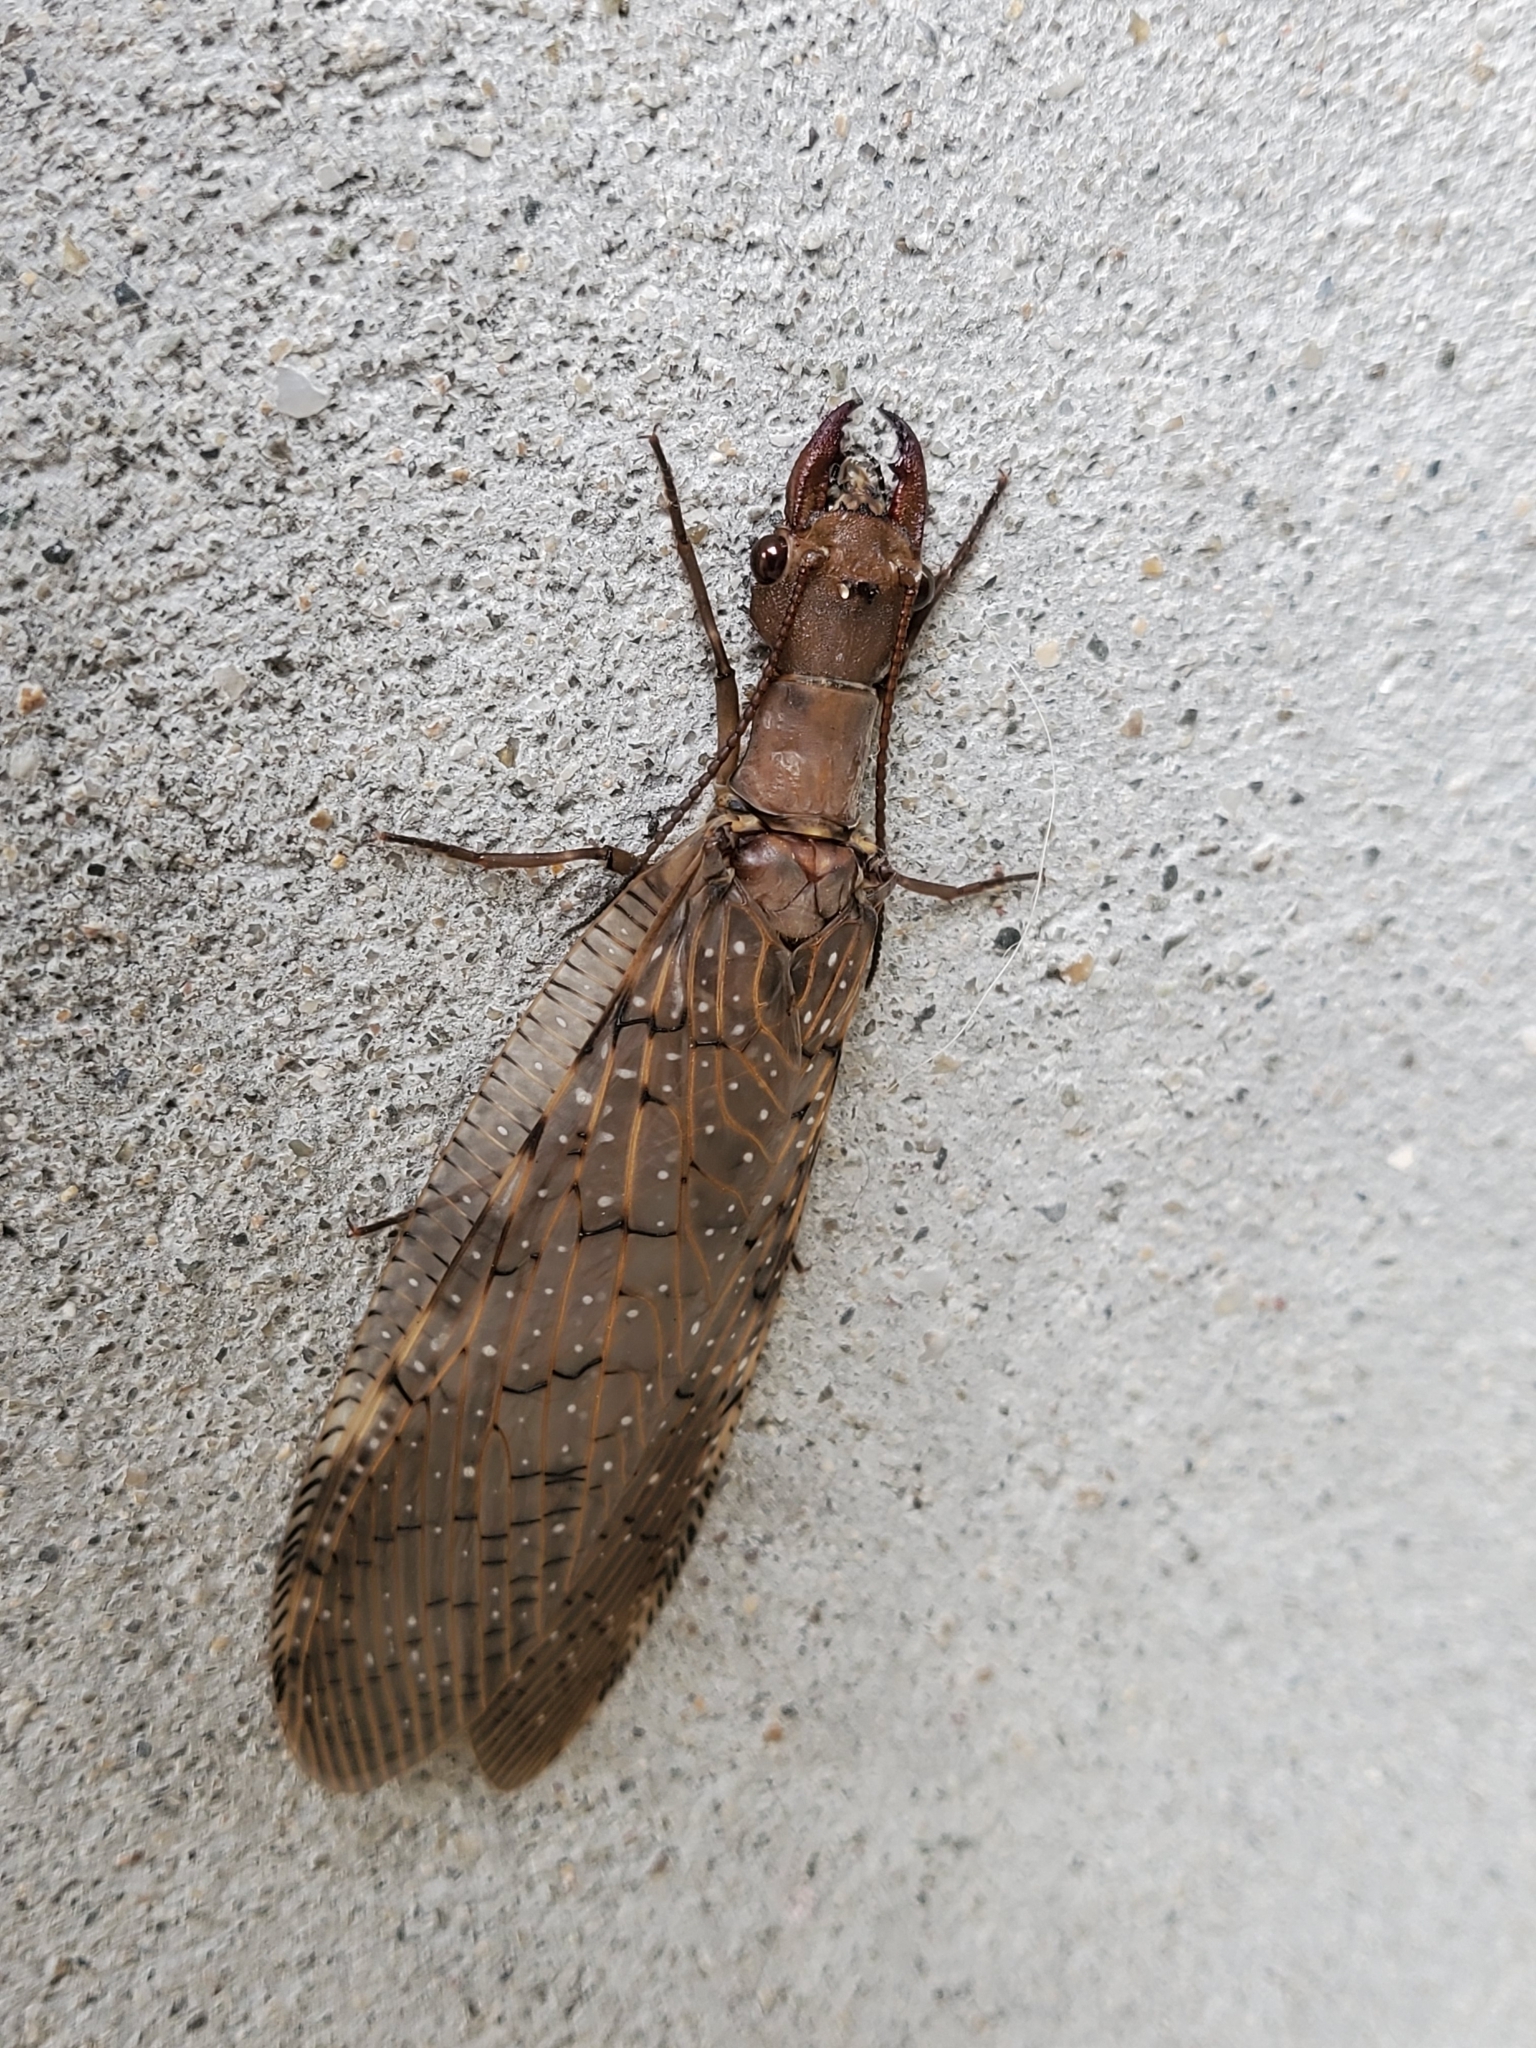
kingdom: Animalia
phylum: Arthropoda
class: Insecta
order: Megaloptera
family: Corydalidae
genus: Corydalus
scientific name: Corydalus luteus
